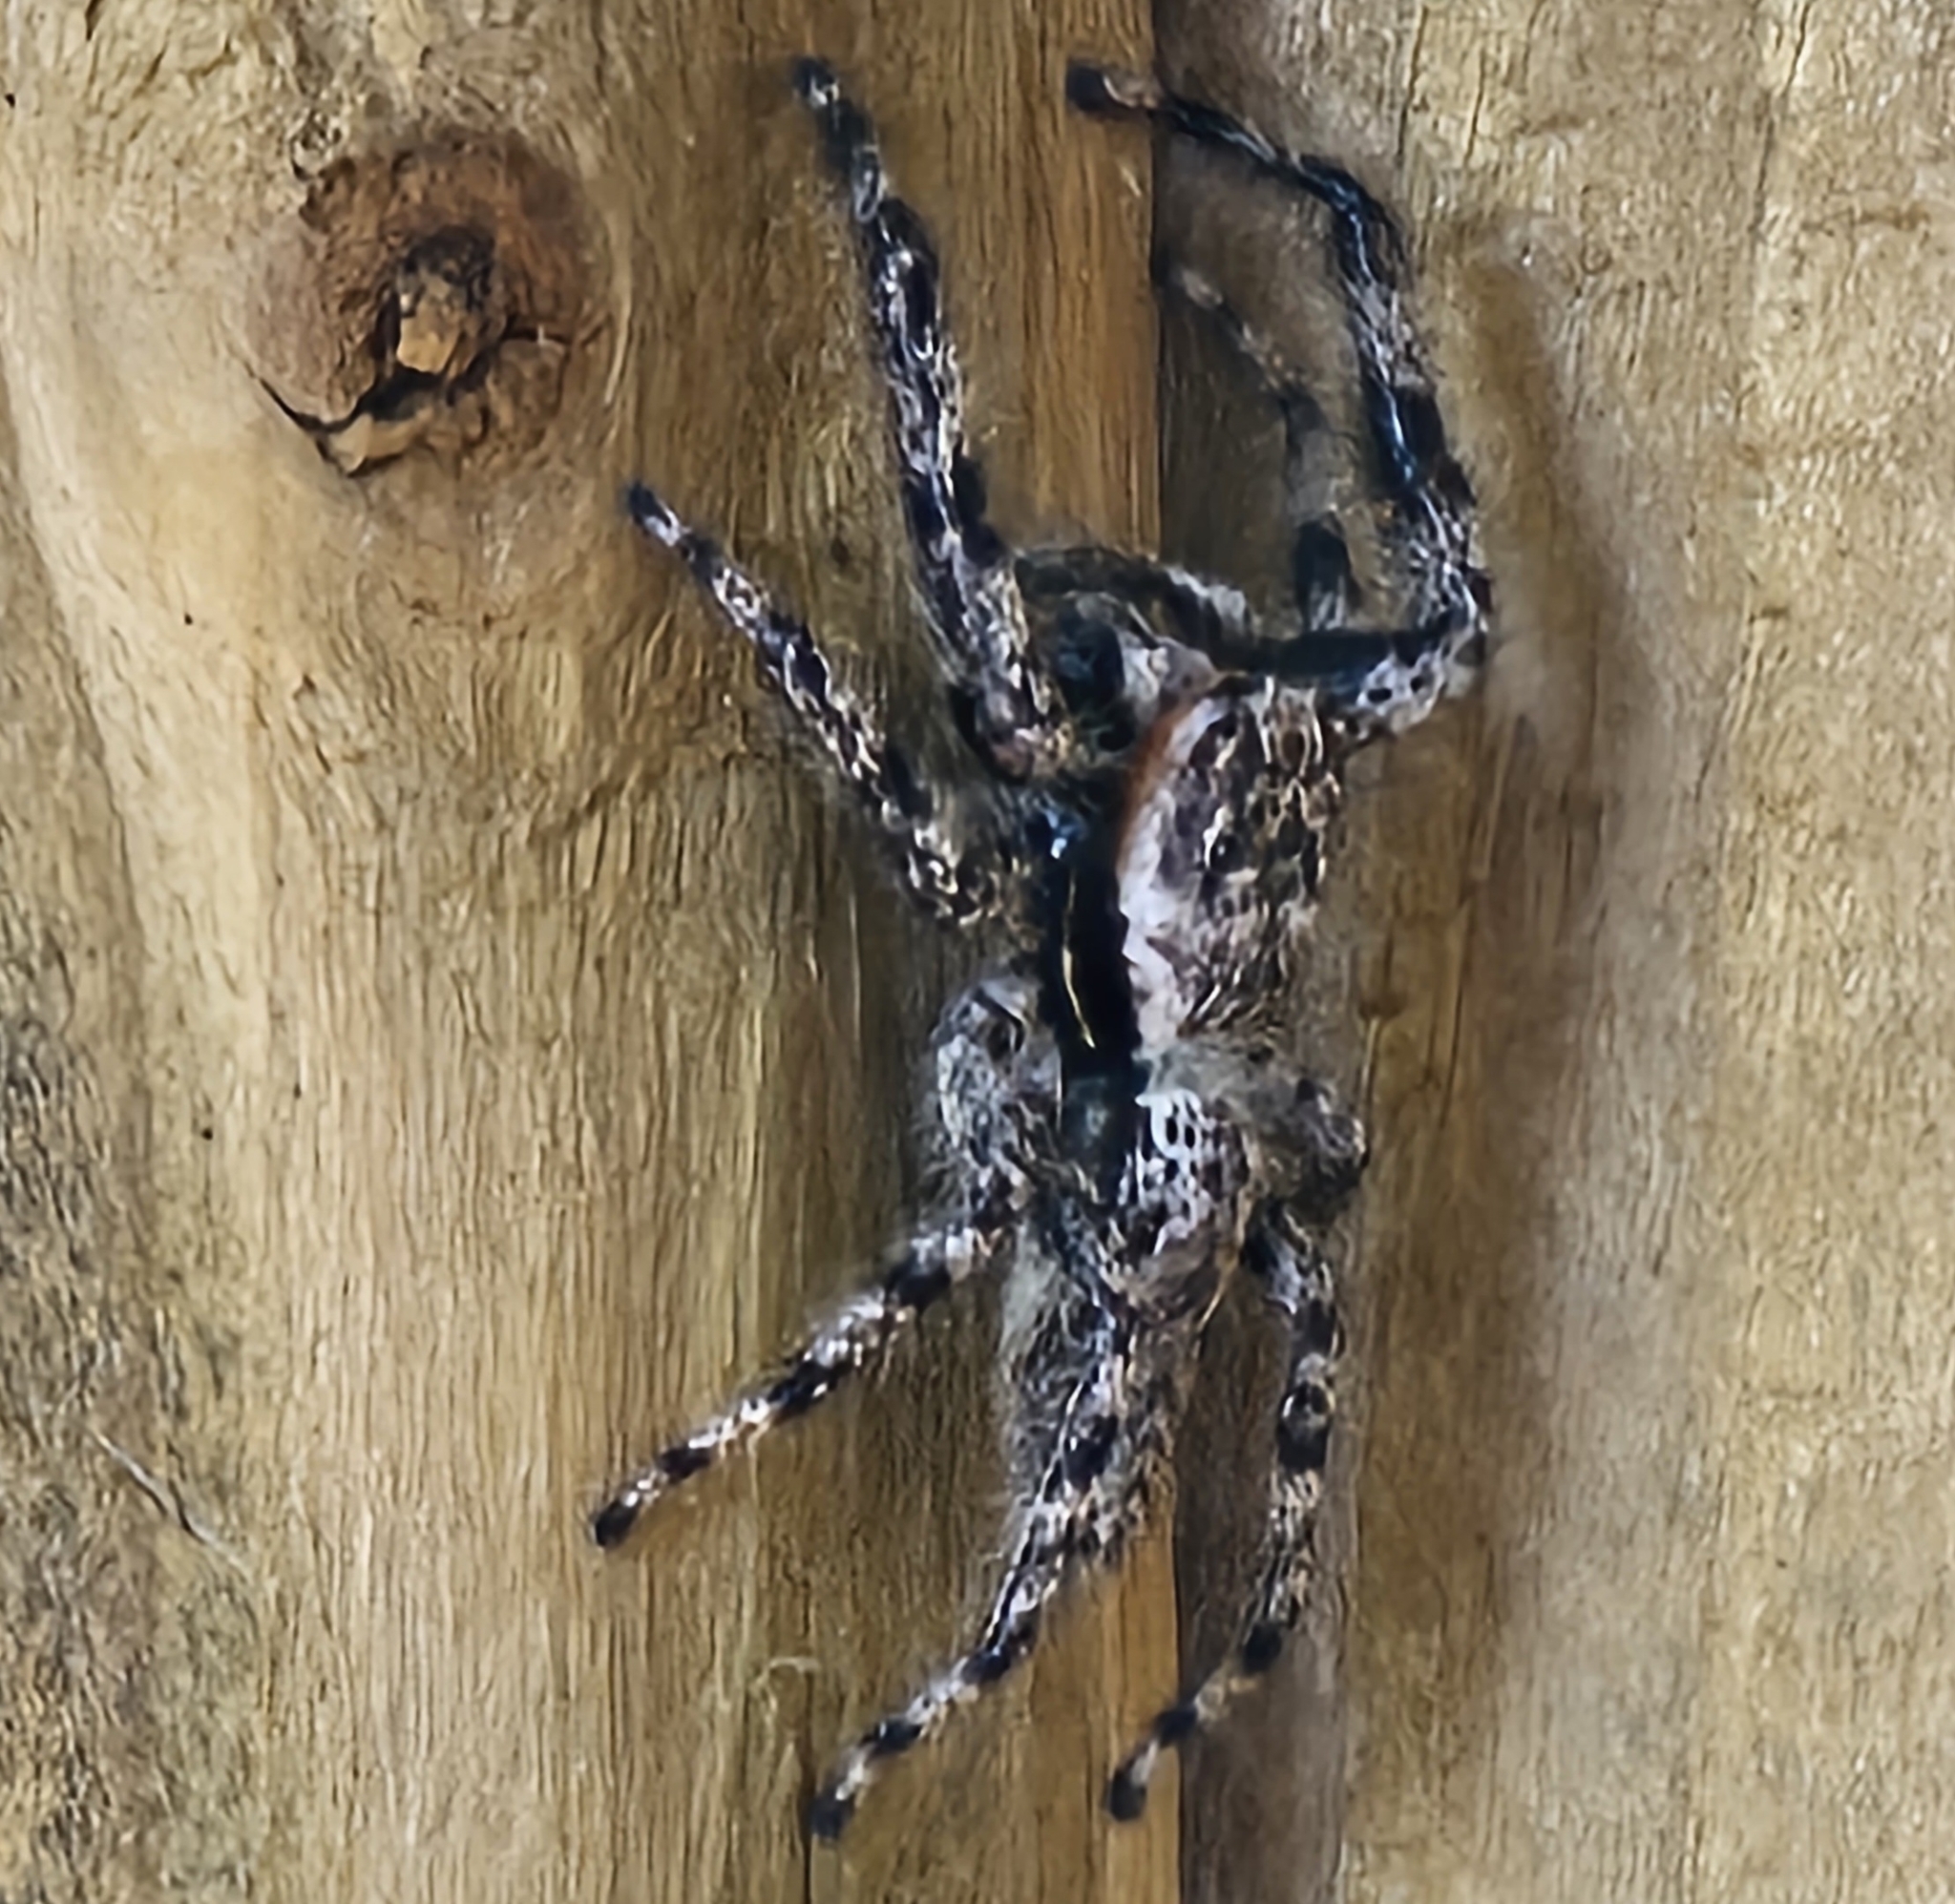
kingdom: Animalia
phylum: Arthropoda
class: Arachnida
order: Araneae
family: Salticidae
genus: Platycryptus
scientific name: Platycryptus undatus
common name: Tan jumping spider
